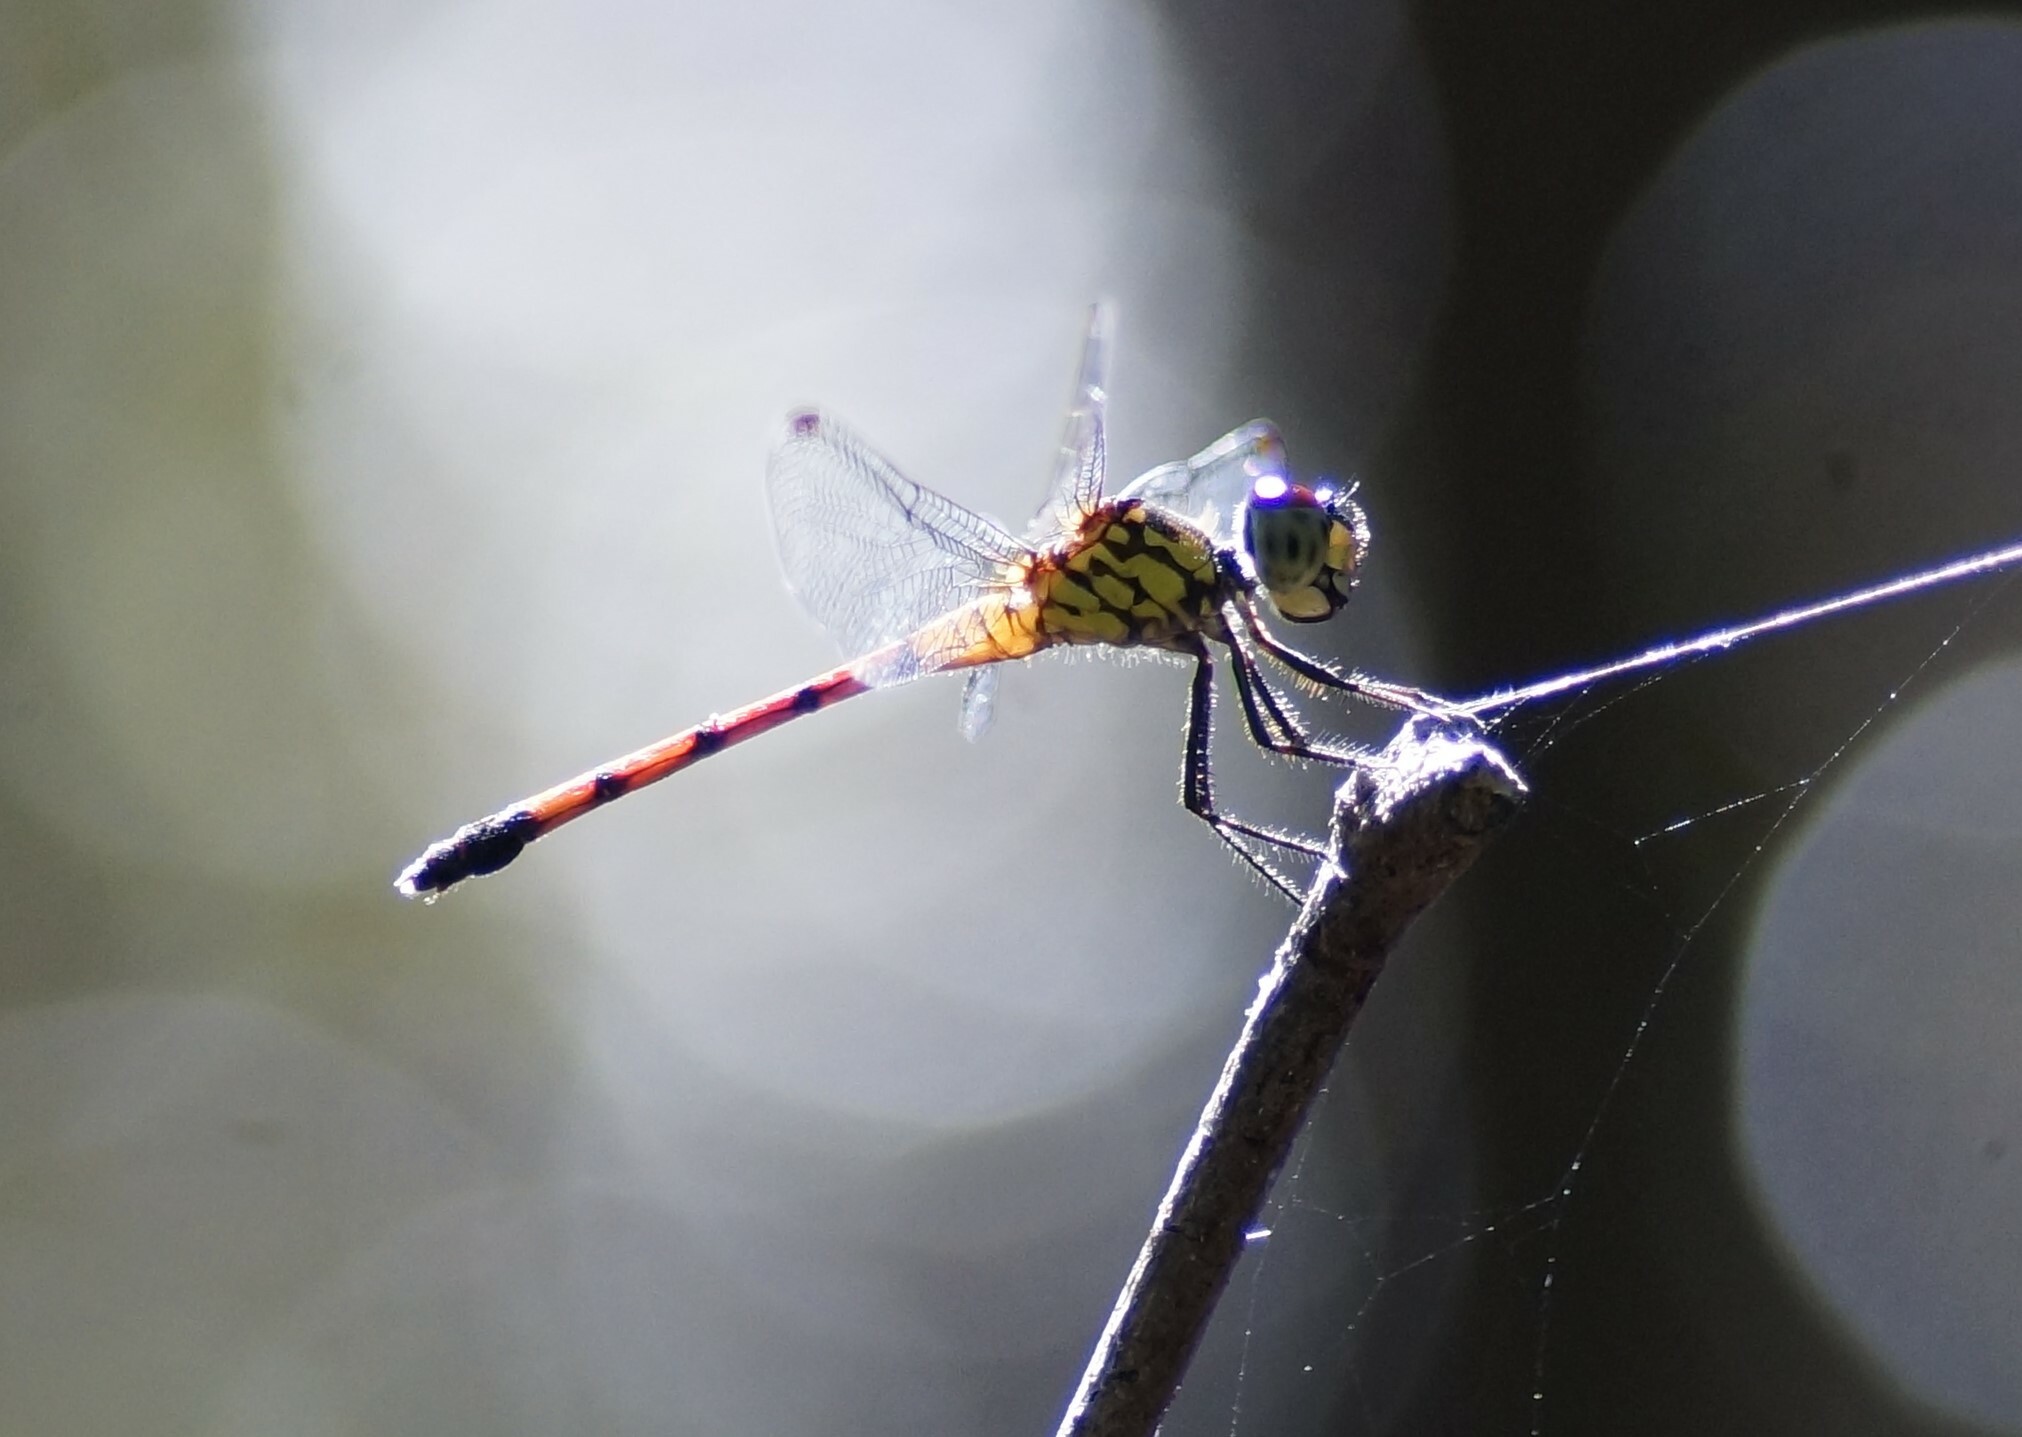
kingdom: Animalia
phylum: Arthropoda
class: Insecta
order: Odonata
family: Libellulidae
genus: Agrionoptera
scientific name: Agrionoptera insignis
